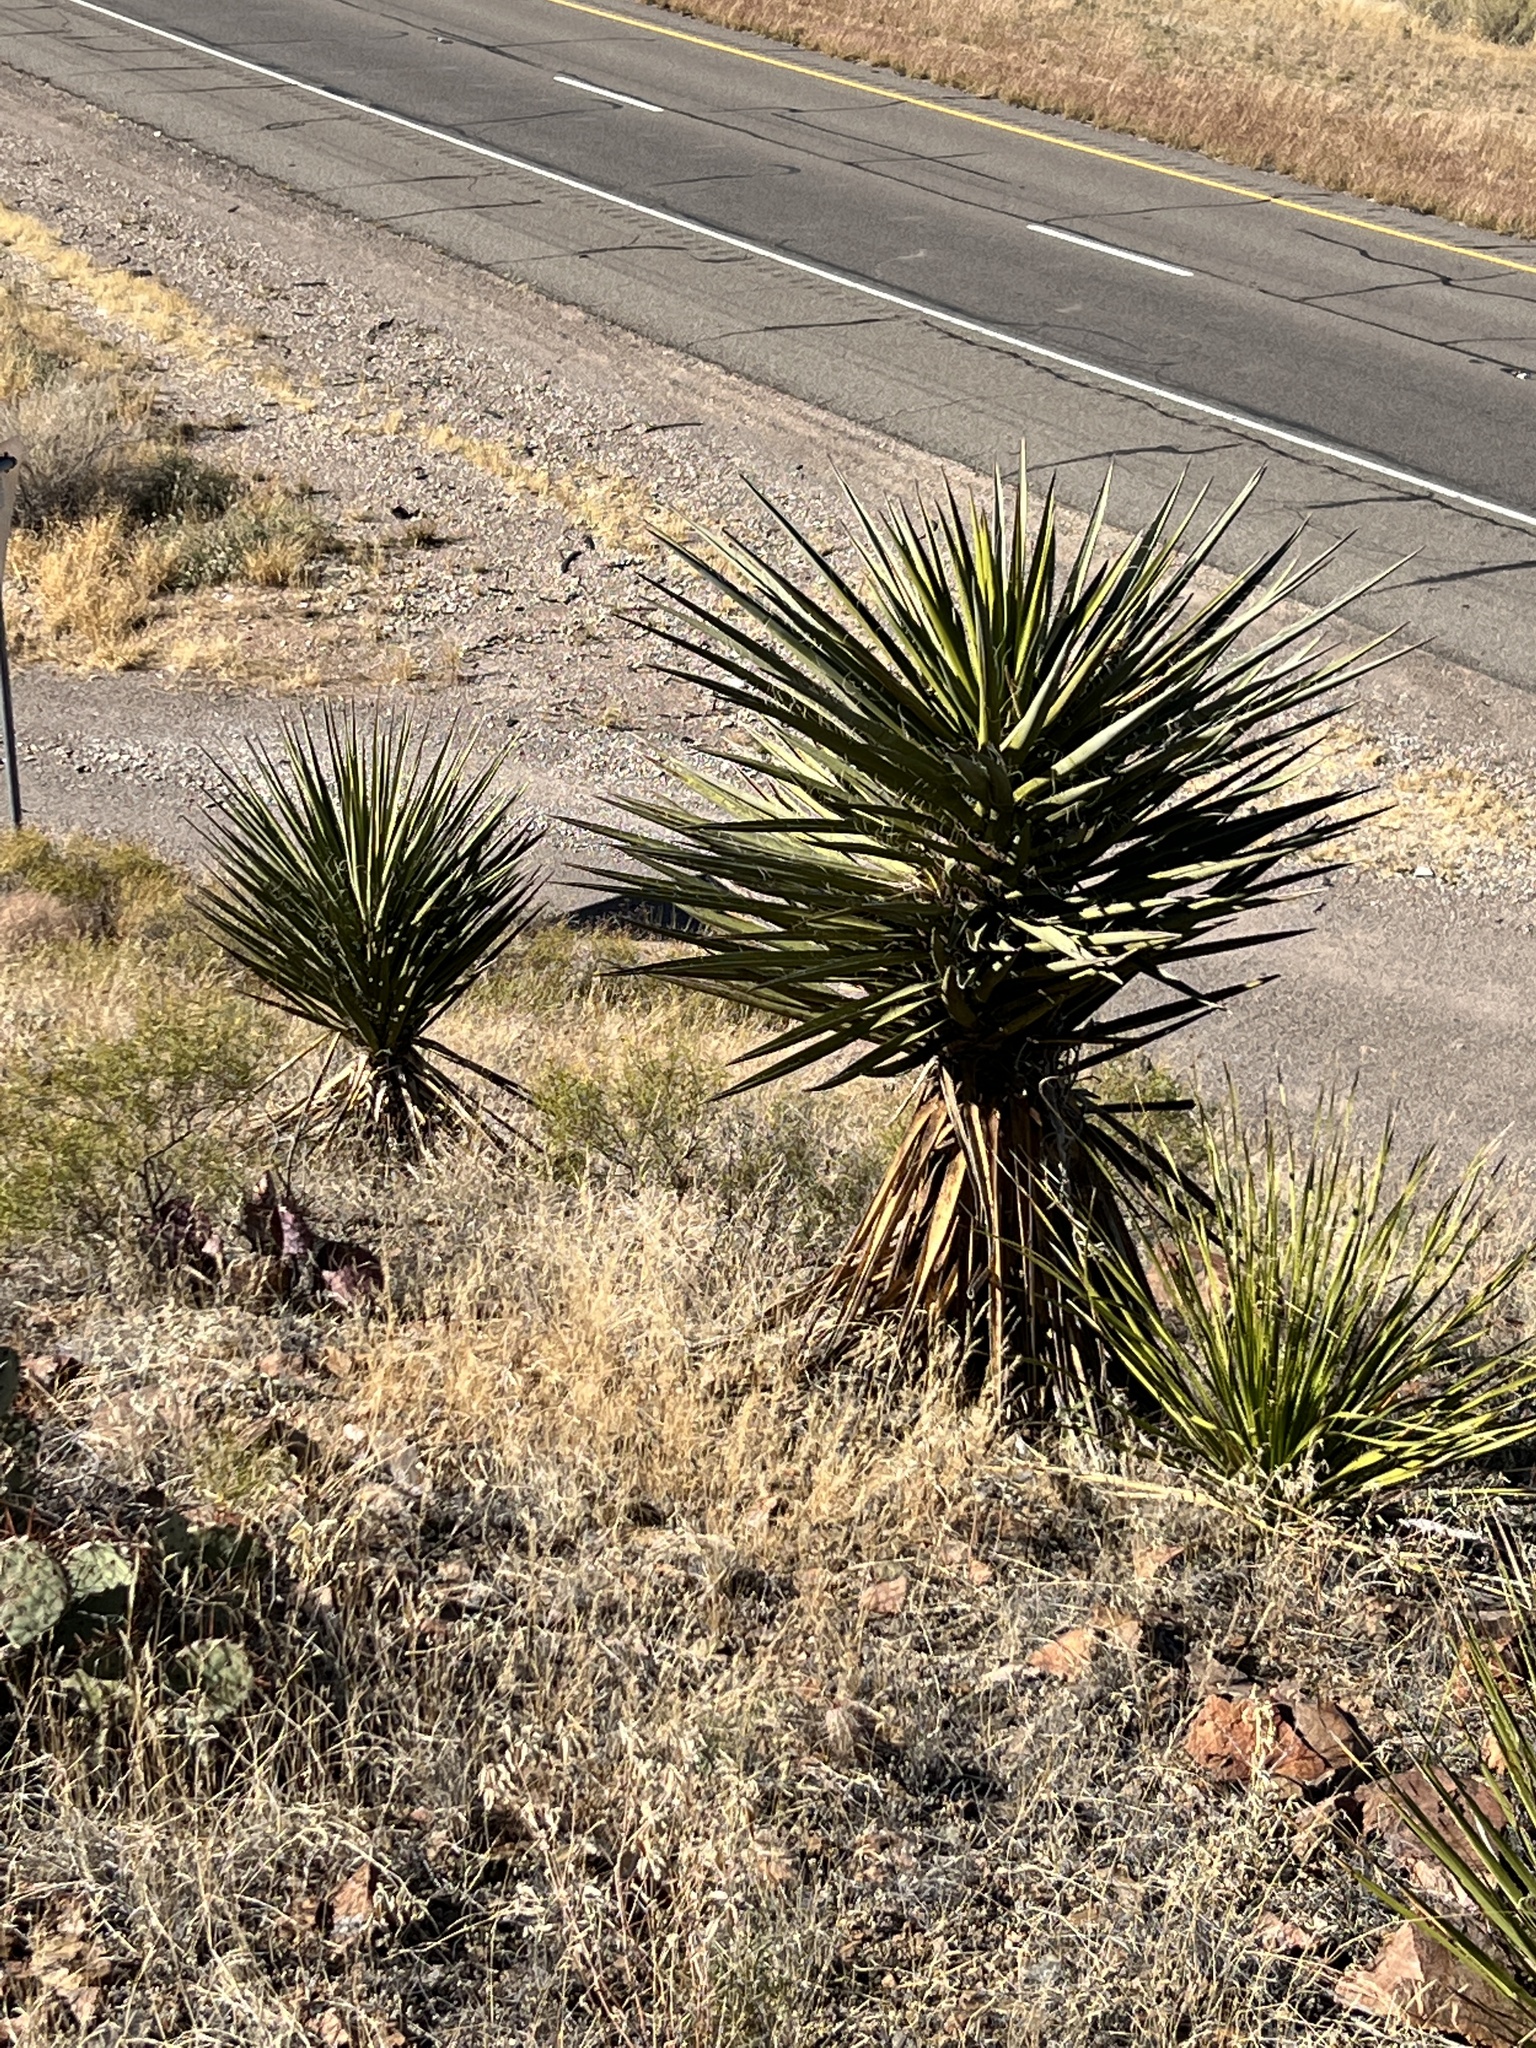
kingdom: Plantae
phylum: Tracheophyta
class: Liliopsida
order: Asparagales
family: Asparagaceae
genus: Yucca
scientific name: Yucca treculiana
